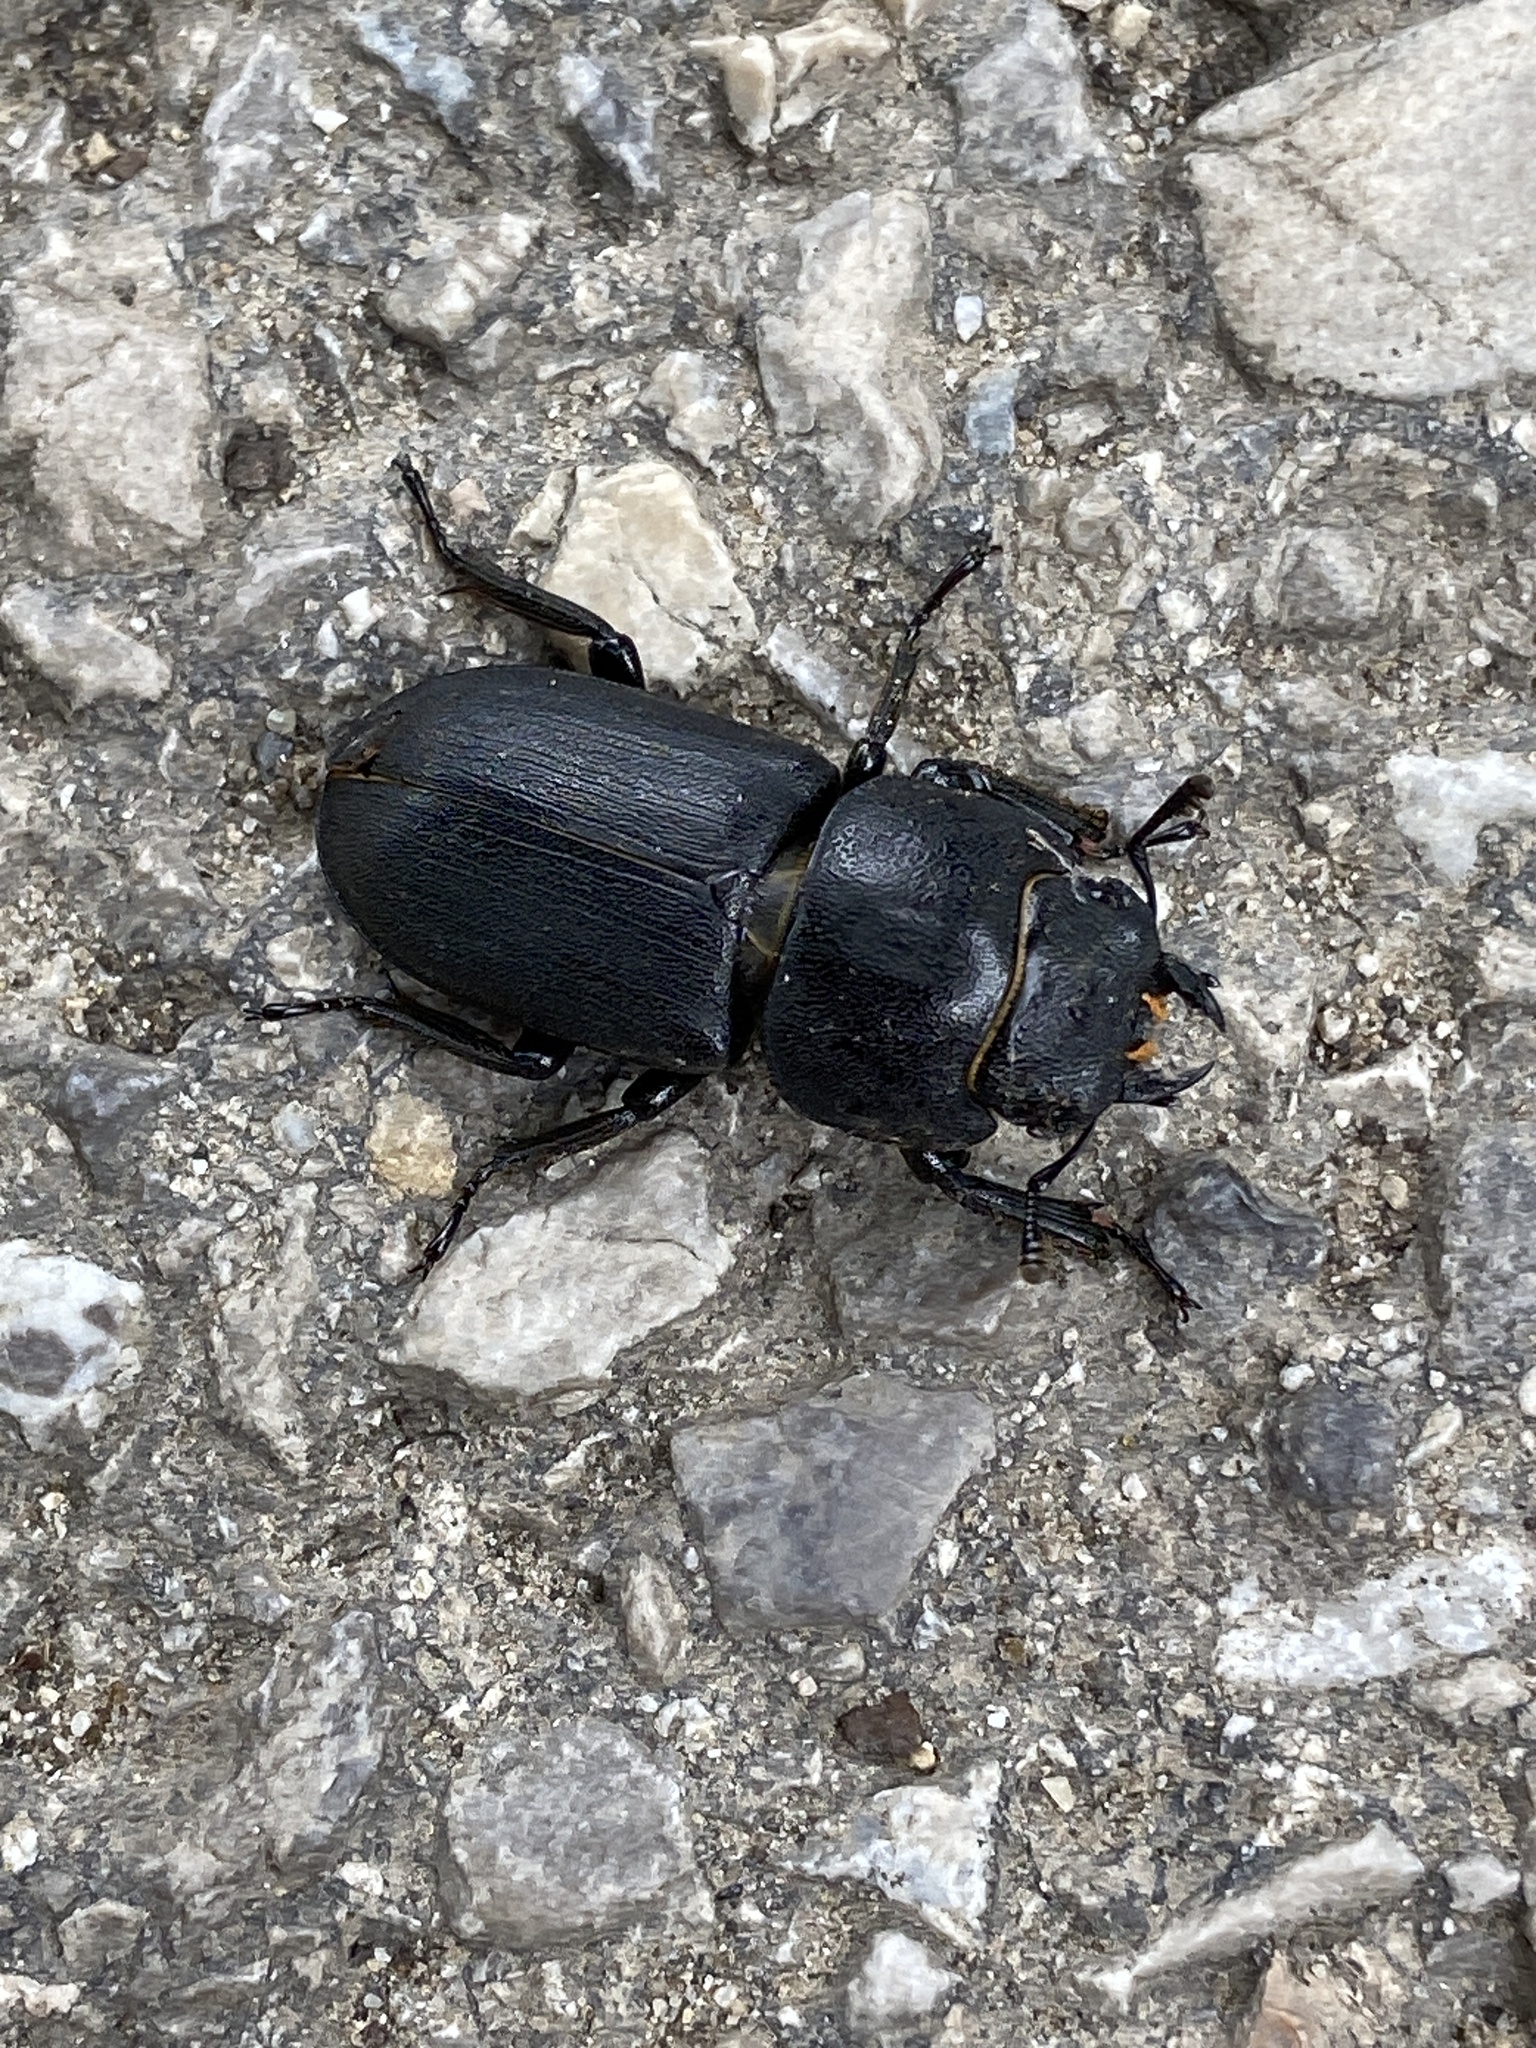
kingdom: Animalia
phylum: Arthropoda
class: Insecta
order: Coleoptera
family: Lucanidae
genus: Dorcus
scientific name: Dorcus parallelipipedus
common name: Lesser stag beetle
